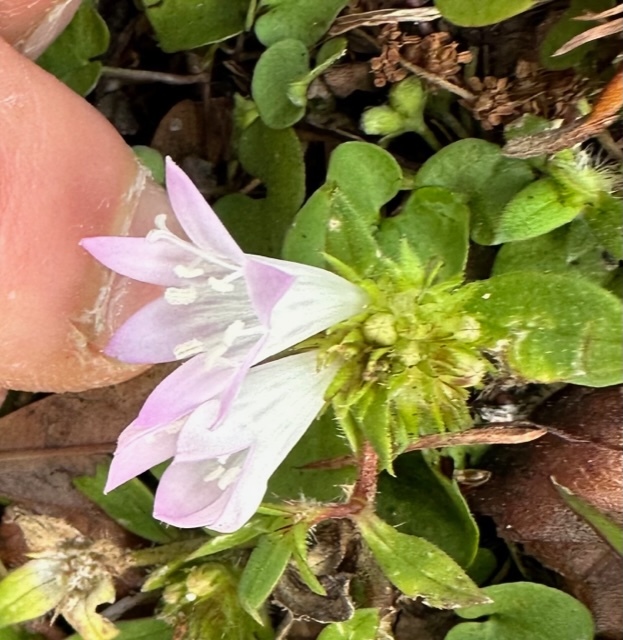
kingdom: Plantae
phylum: Tracheophyta
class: Magnoliopsida
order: Gentianales
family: Rubiaceae
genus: Richardia
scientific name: Richardia grandiflora
